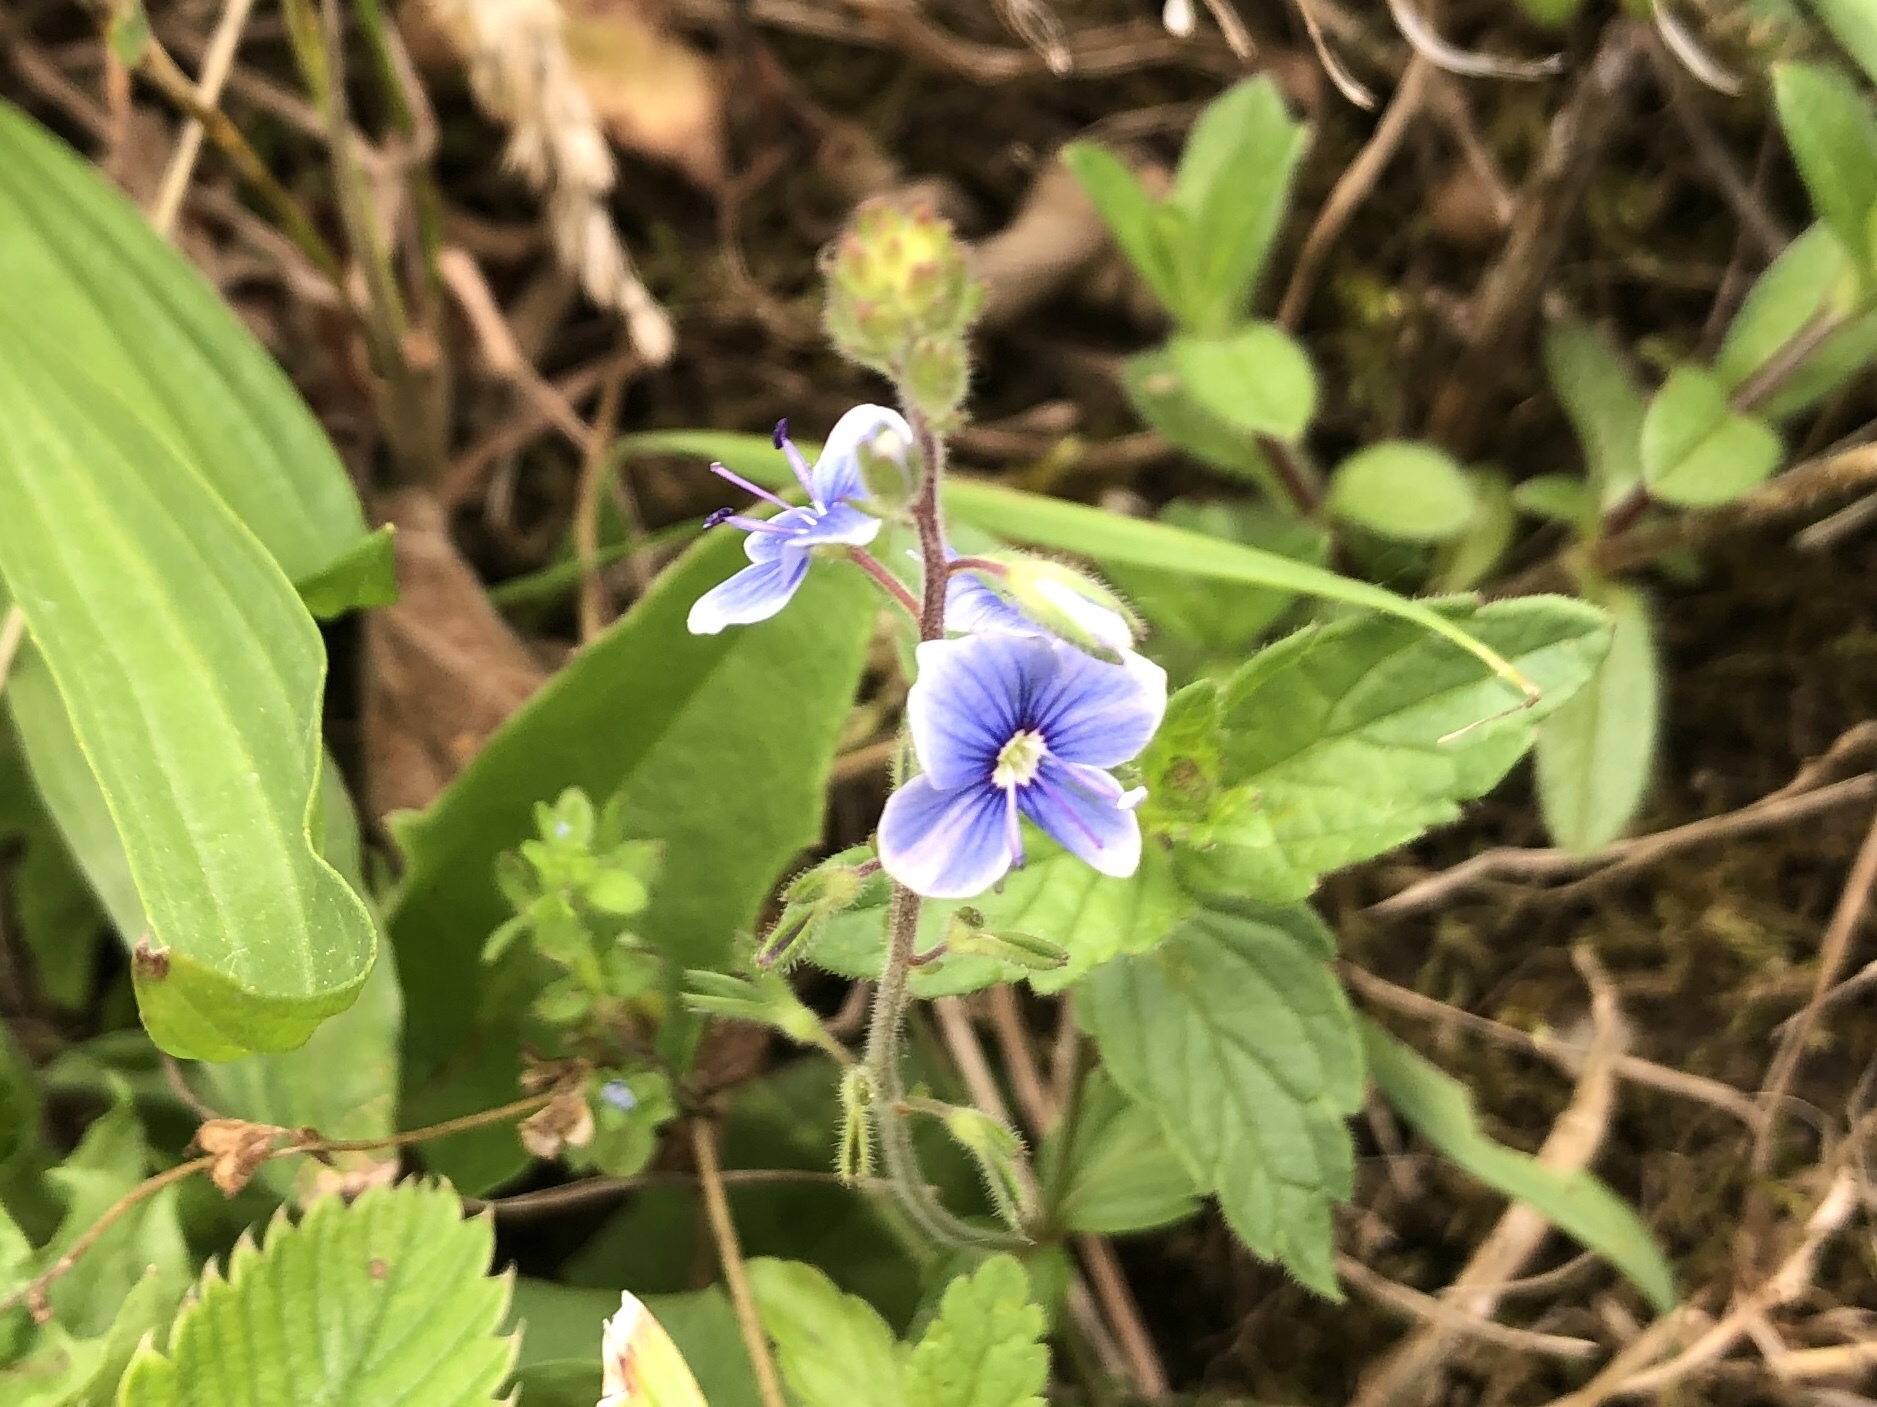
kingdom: Plantae
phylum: Tracheophyta
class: Magnoliopsida
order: Lamiales
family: Plantaginaceae
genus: Veronica
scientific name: Veronica chamaedrys
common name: Germander speedwell
